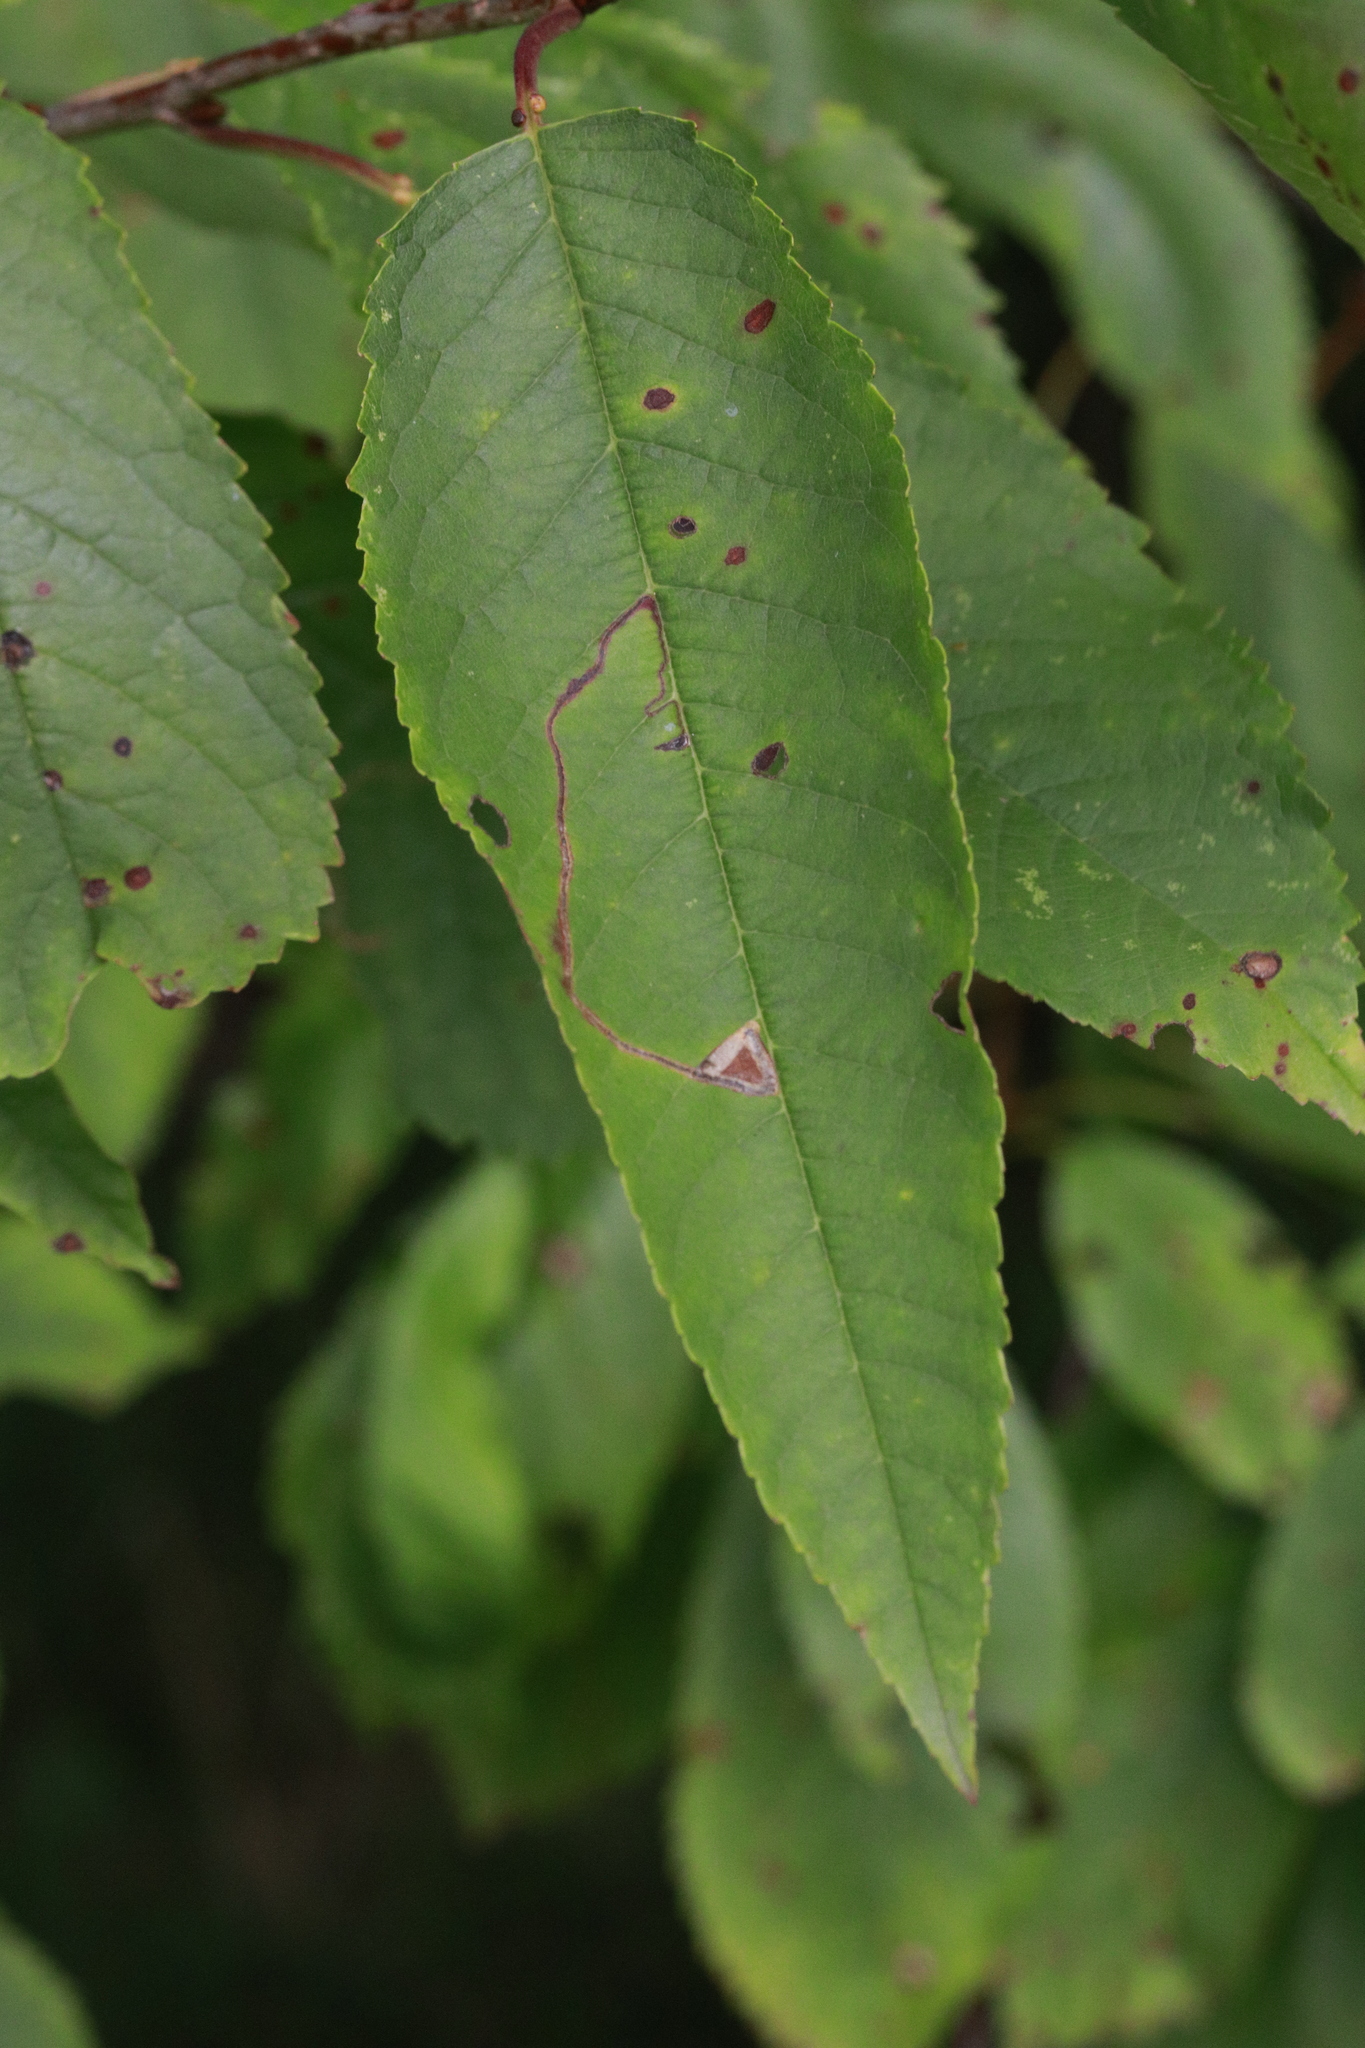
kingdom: Animalia
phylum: Arthropoda
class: Insecta
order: Lepidoptera
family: Lyonetiidae
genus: Lyonetia
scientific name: Lyonetia clerkella
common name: Apple leaf miner
